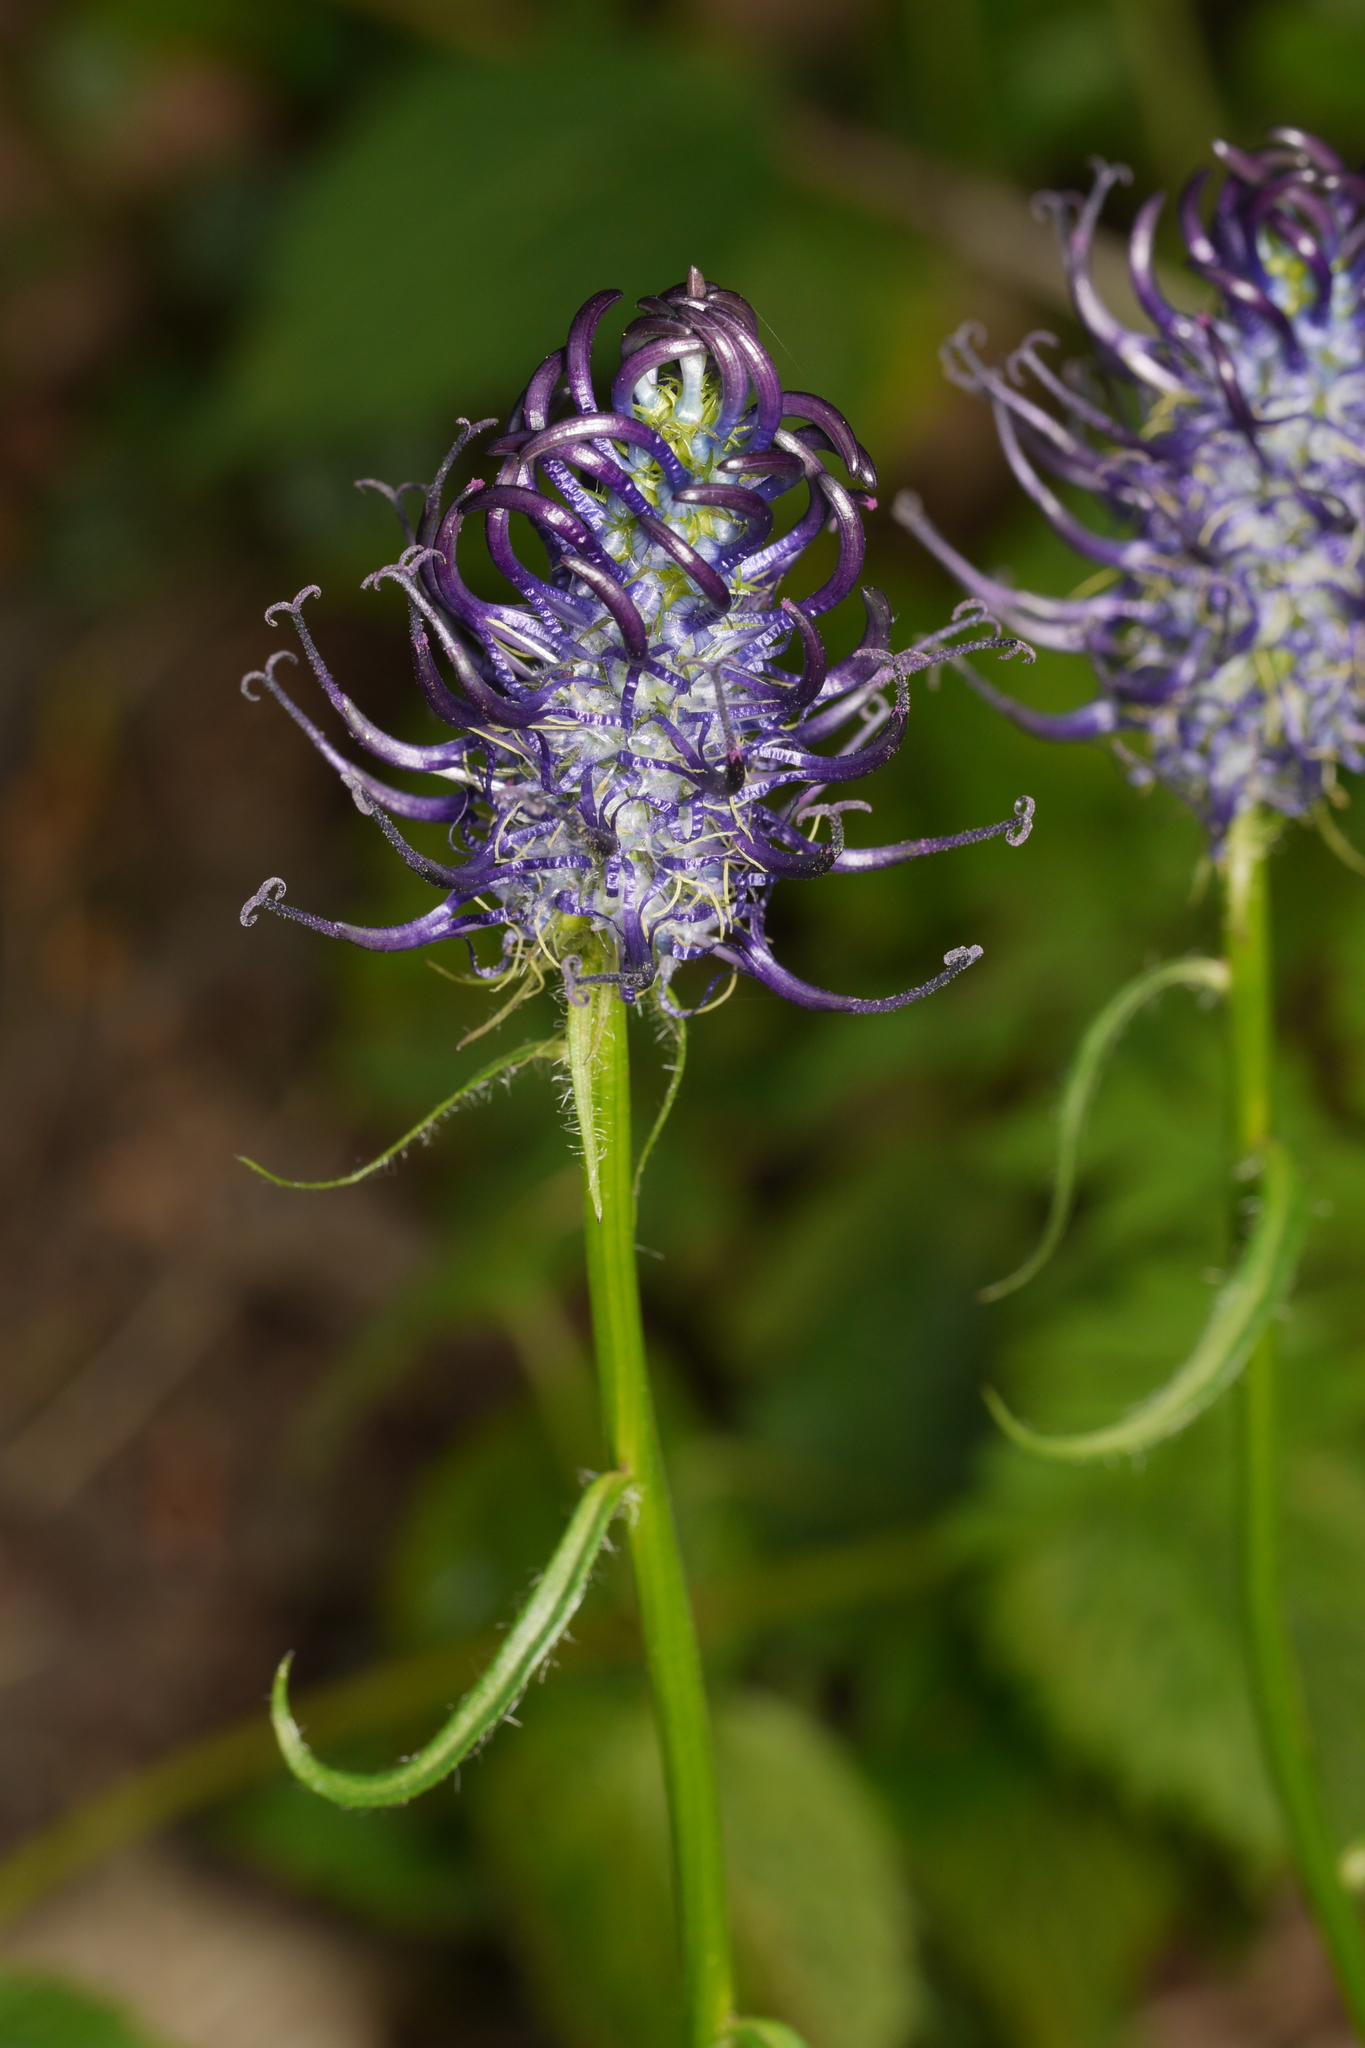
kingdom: Plantae
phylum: Tracheophyta
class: Magnoliopsida
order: Asterales
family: Campanulaceae
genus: Phyteuma
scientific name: Phyteuma nigrum
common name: Black rampion
